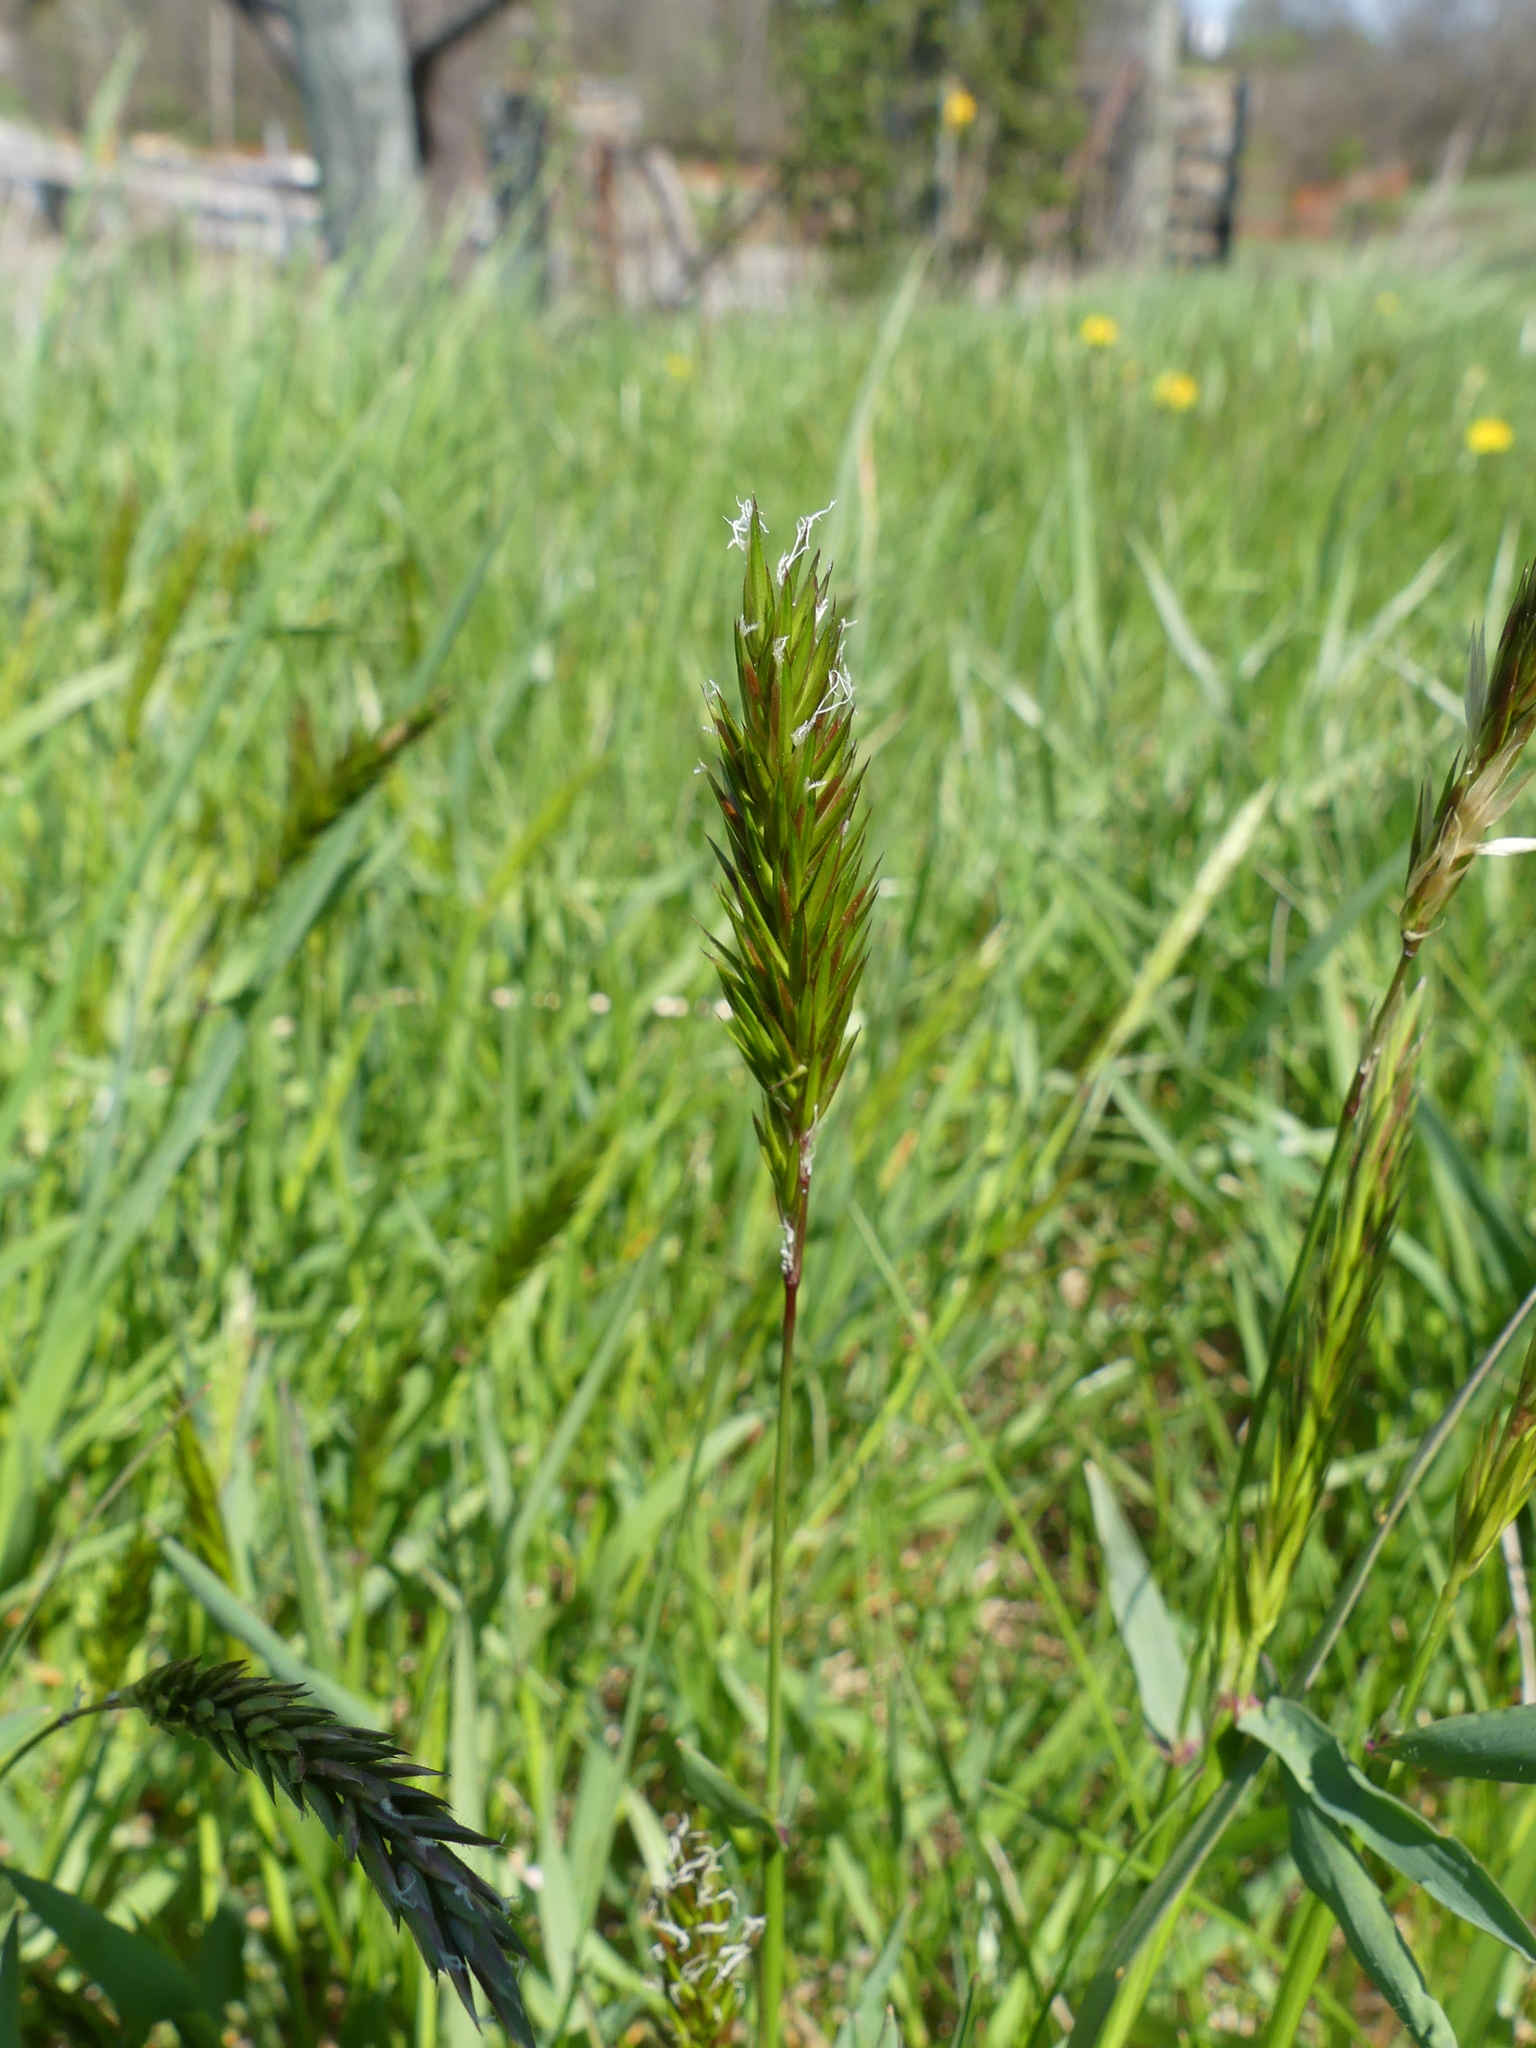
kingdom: Plantae
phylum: Tracheophyta
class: Liliopsida
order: Poales
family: Poaceae
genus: Anthoxanthum
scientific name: Anthoxanthum odoratum
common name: Sweet vernalgrass
